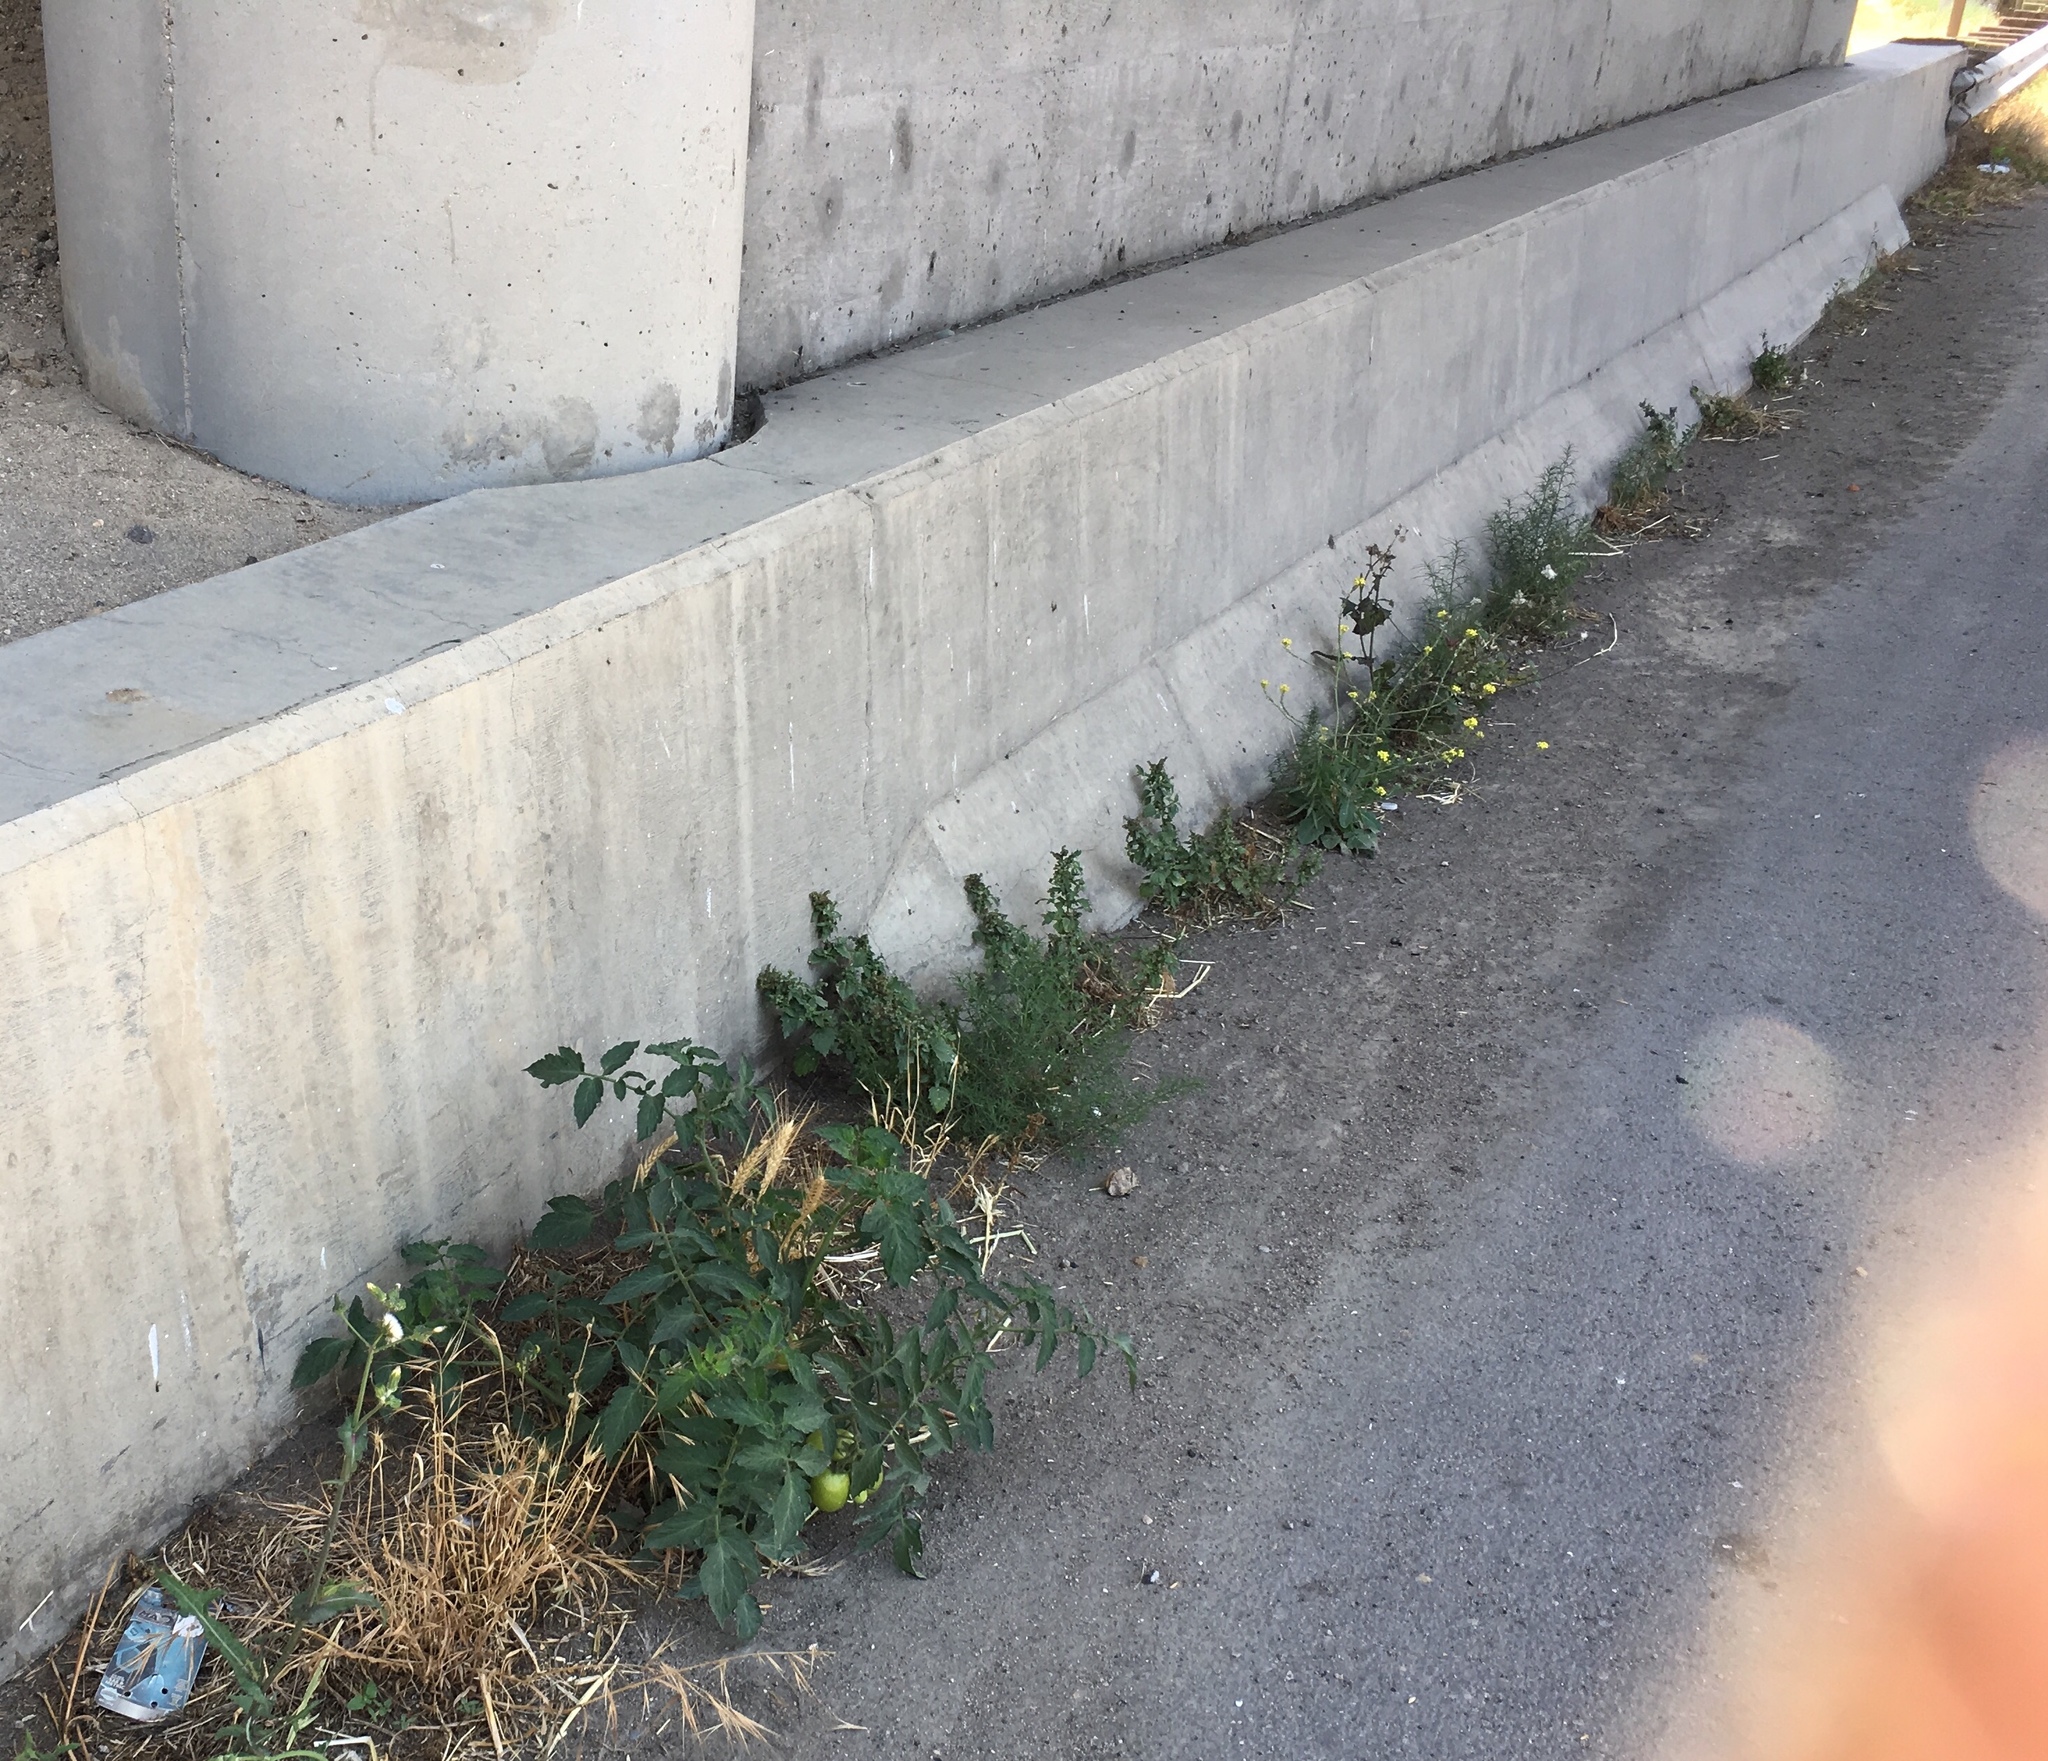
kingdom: Plantae
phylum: Tracheophyta
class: Magnoliopsida
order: Solanales
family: Solanaceae
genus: Solanum
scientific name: Solanum lycopersicum
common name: Garden tomato
